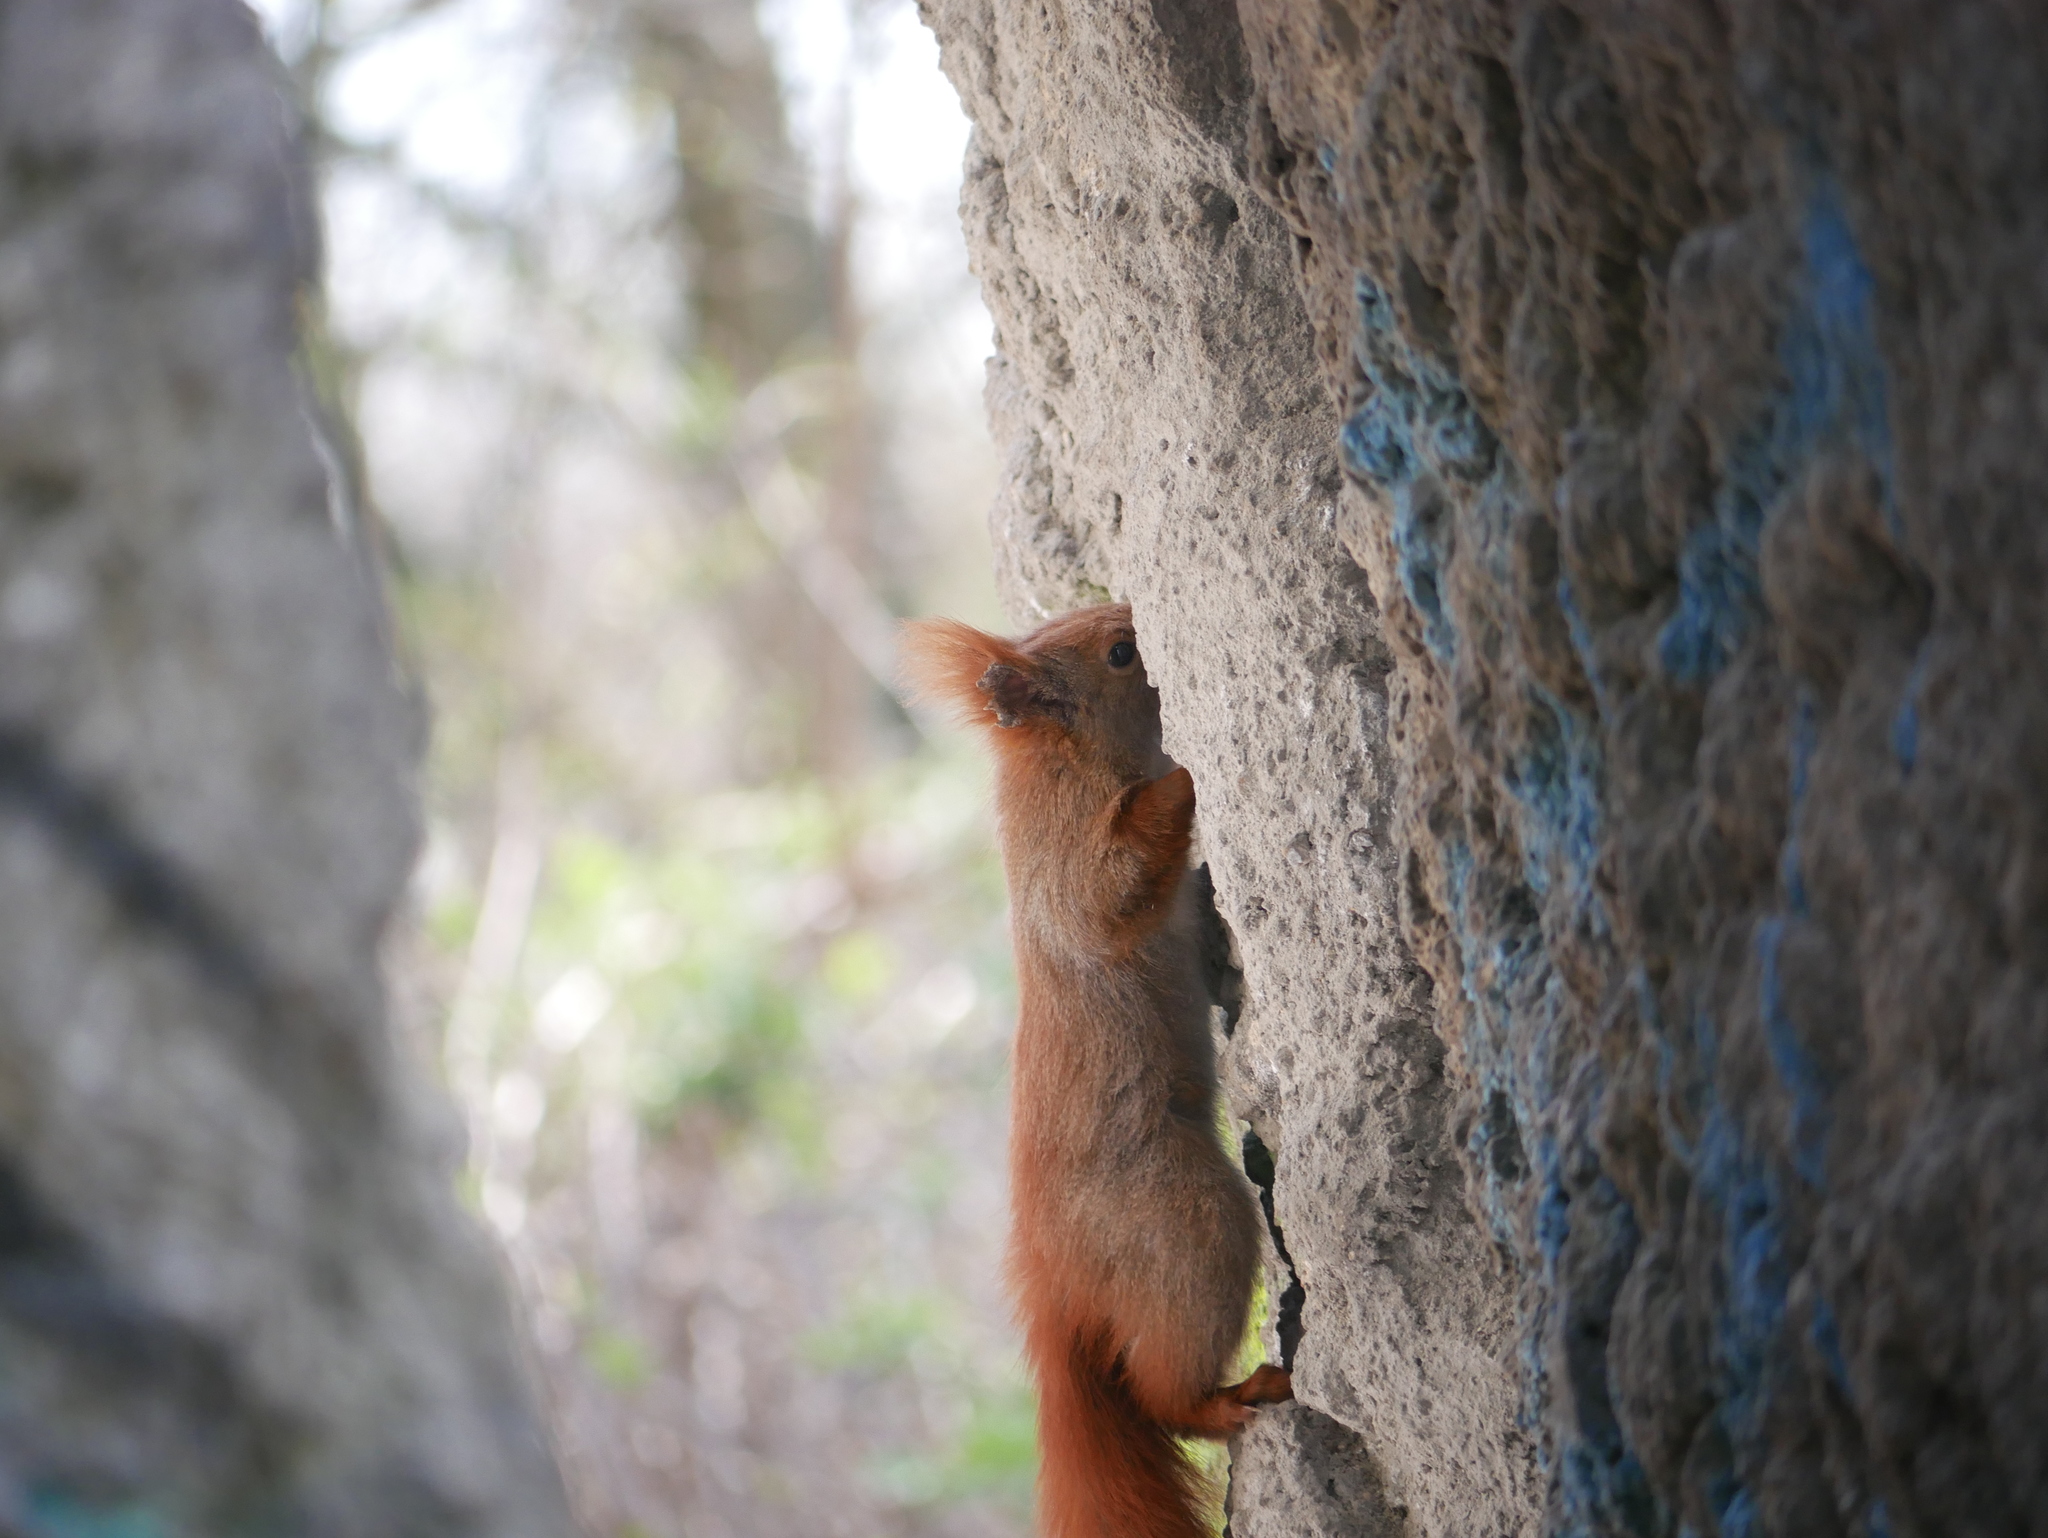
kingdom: Animalia
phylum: Chordata
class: Mammalia
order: Rodentia
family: Sciuridae
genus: Sciurus
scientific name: Sciurus vulgaris
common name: Eurasian red squirrel
